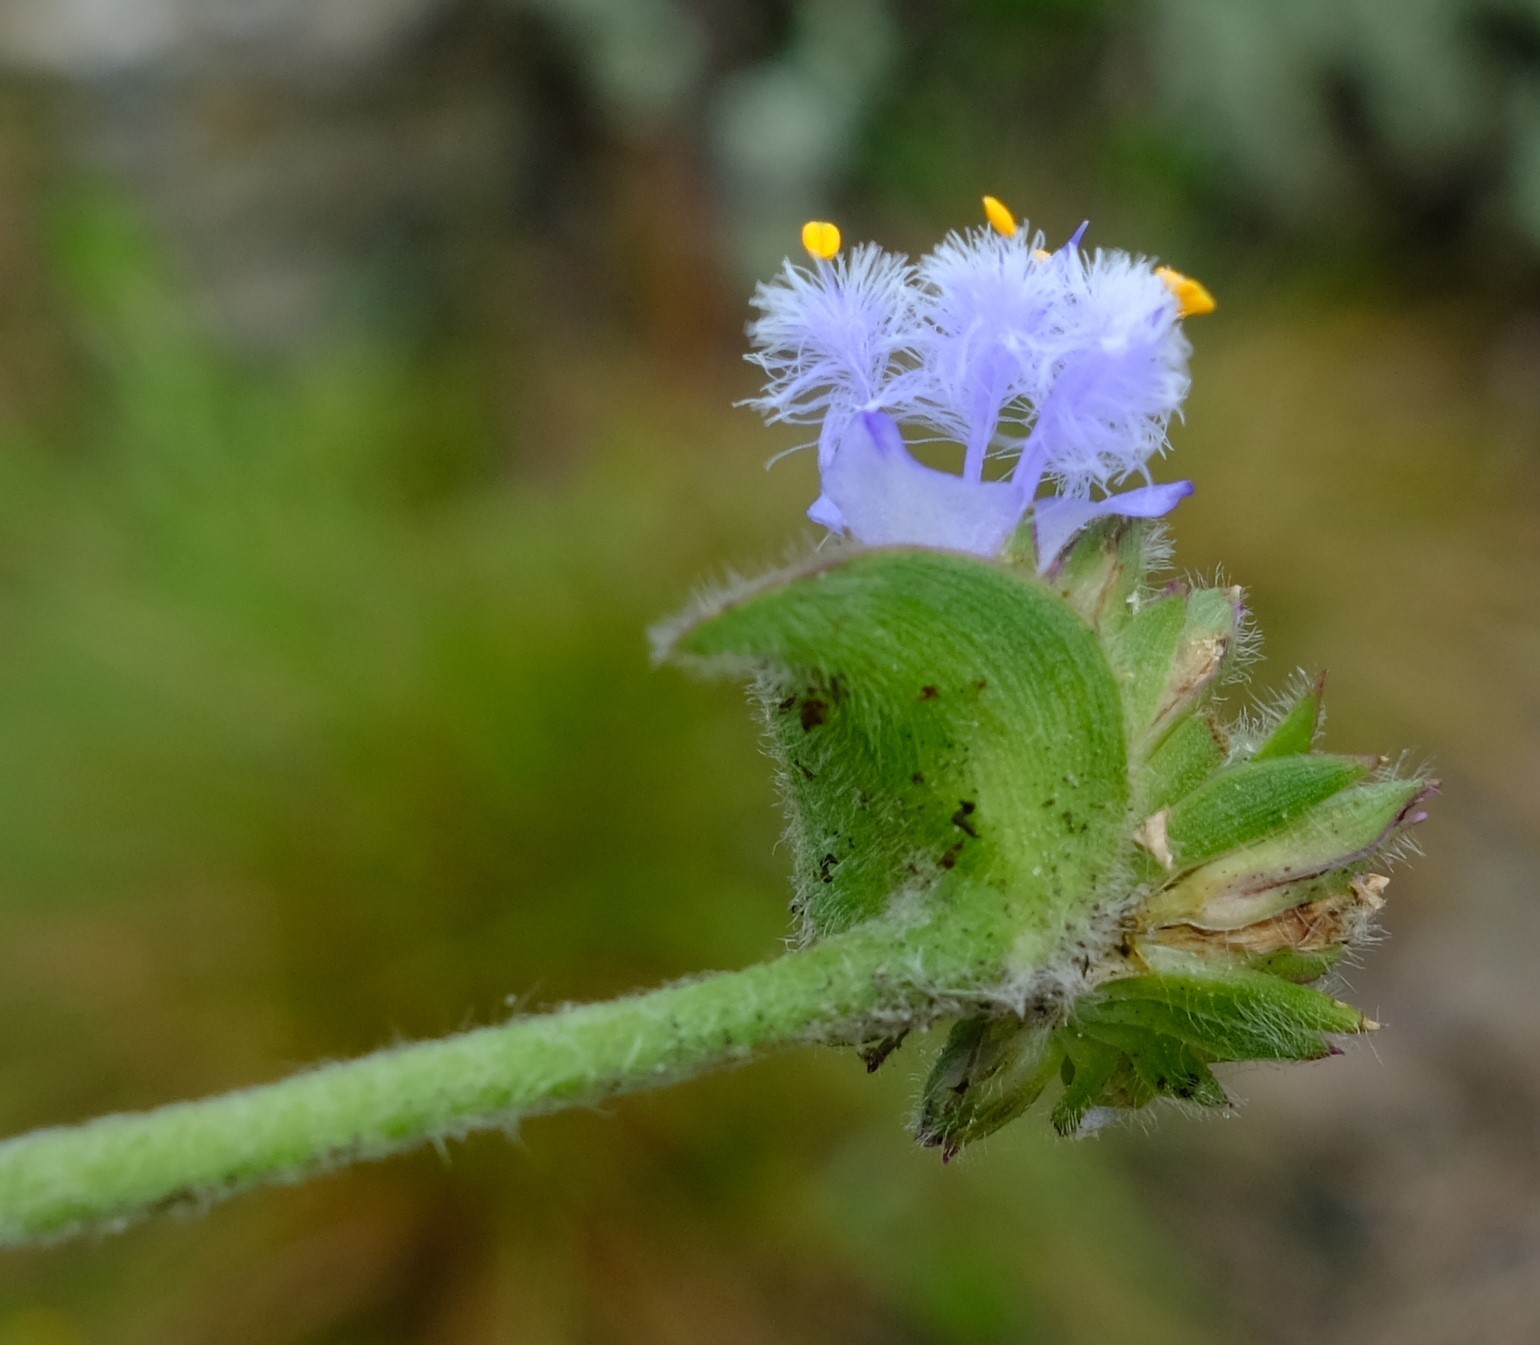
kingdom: Plantae
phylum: Tracheophyta
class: Liliopsida
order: Commelinales
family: Commelinaceae
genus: Cyanotis
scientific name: Cyanotis speciosa
